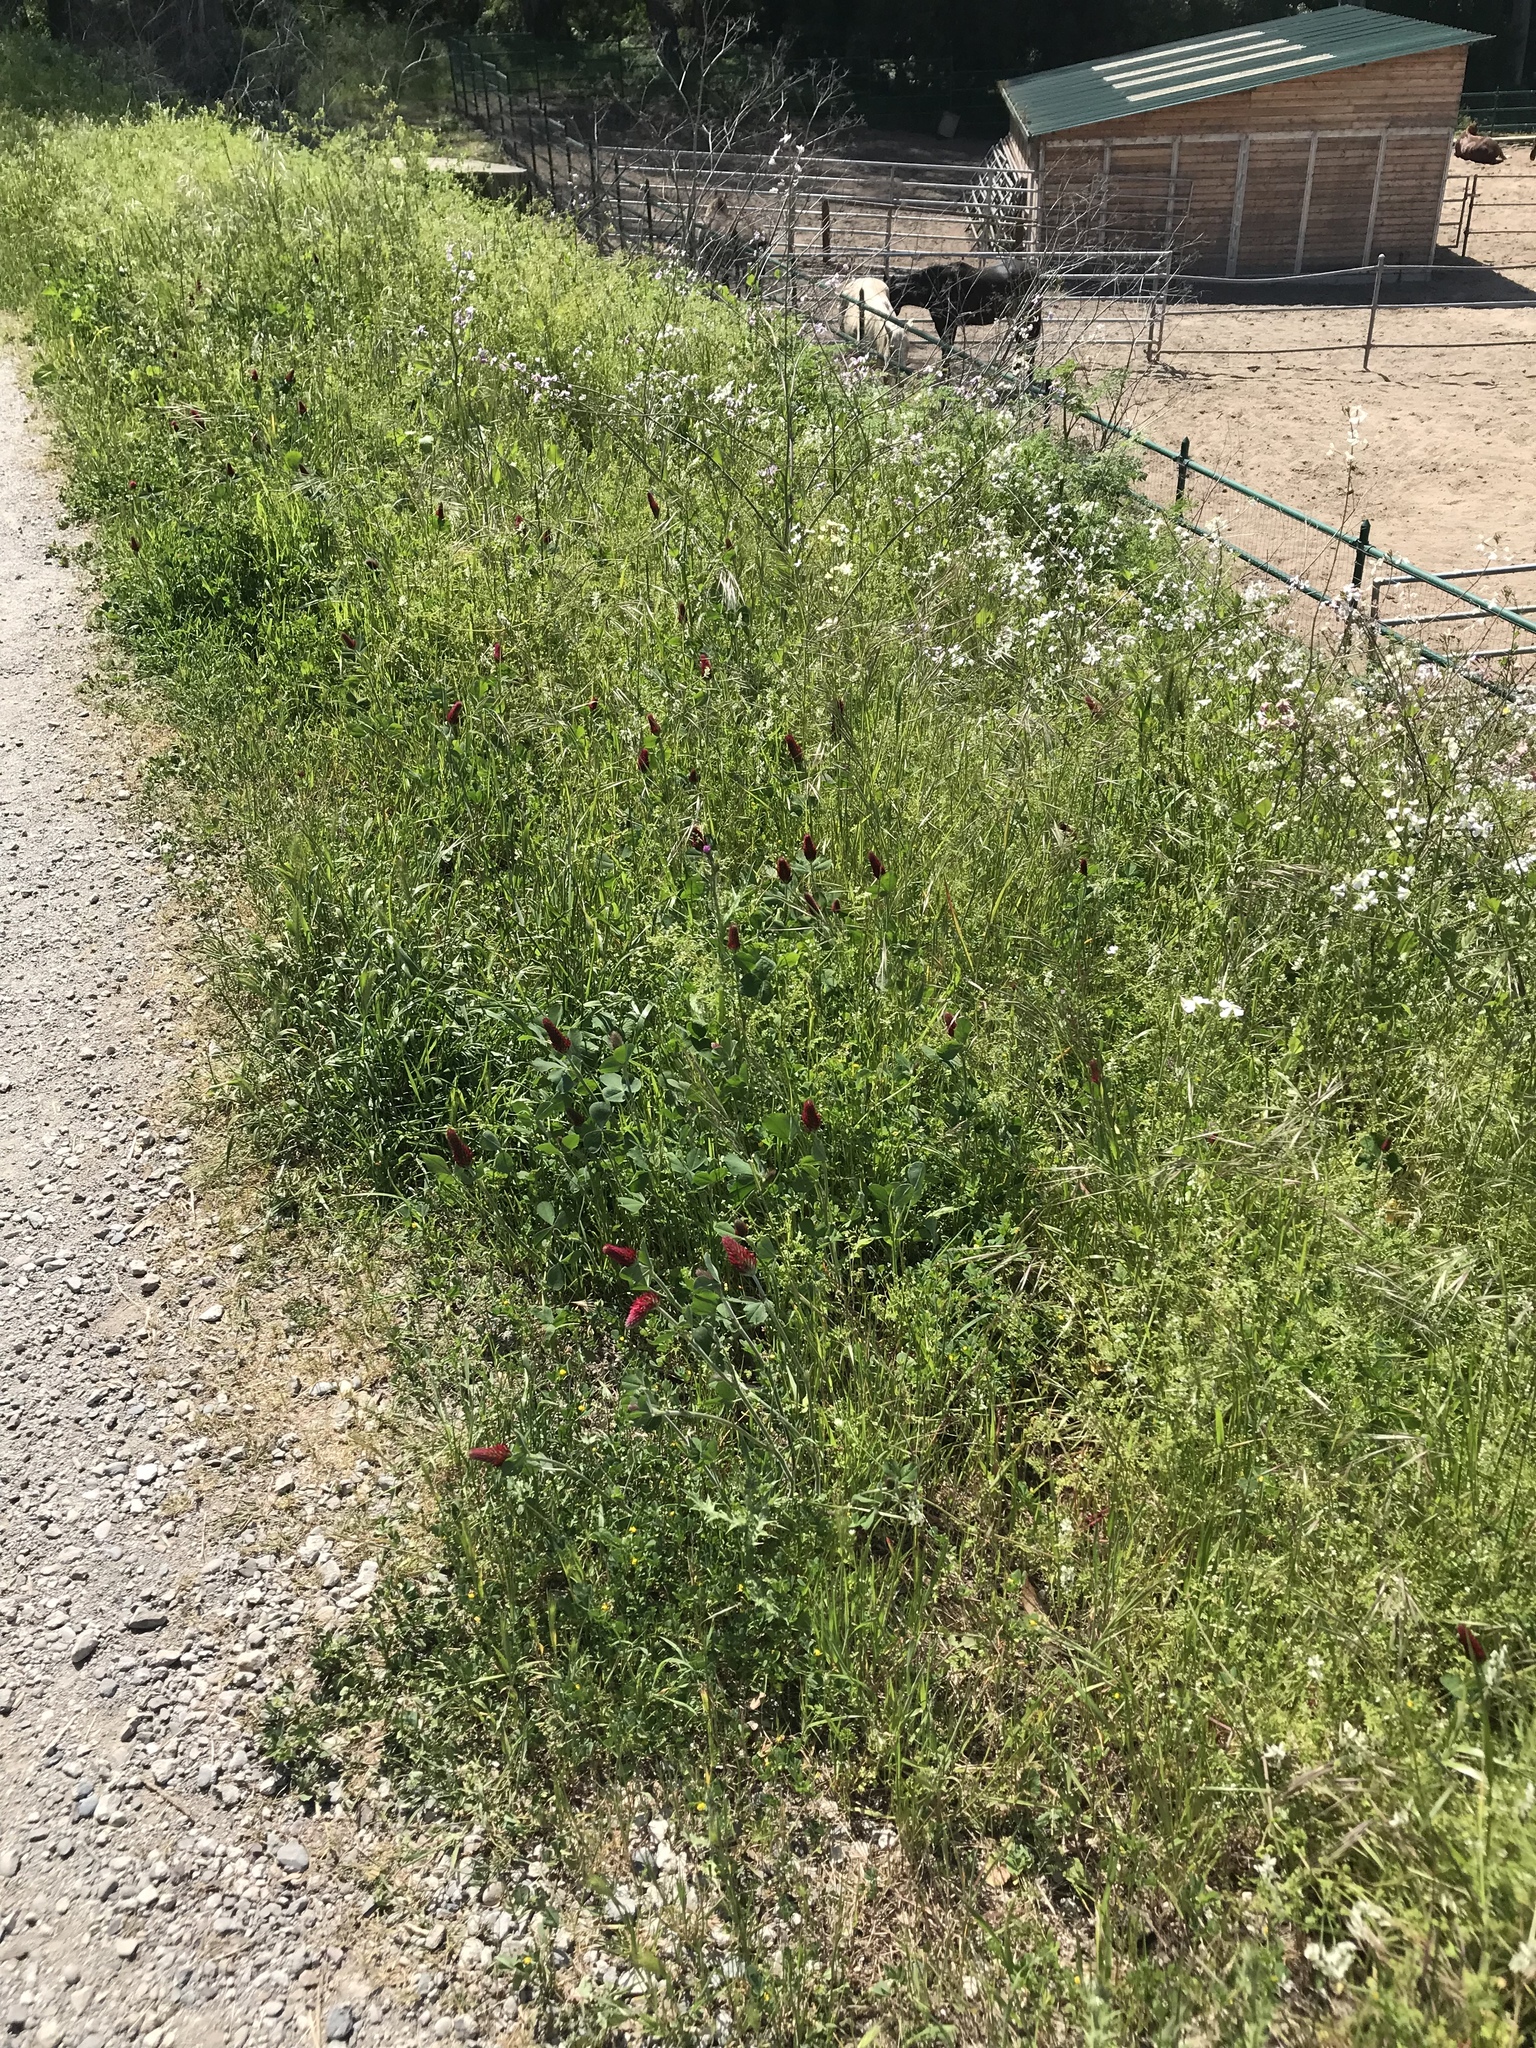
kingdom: Plantae
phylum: Tracheophyta
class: Magnoliopsida
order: Fabales
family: Fabaceae
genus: Trifolium
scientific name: Trifolium incarnatum
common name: Crimson clover
